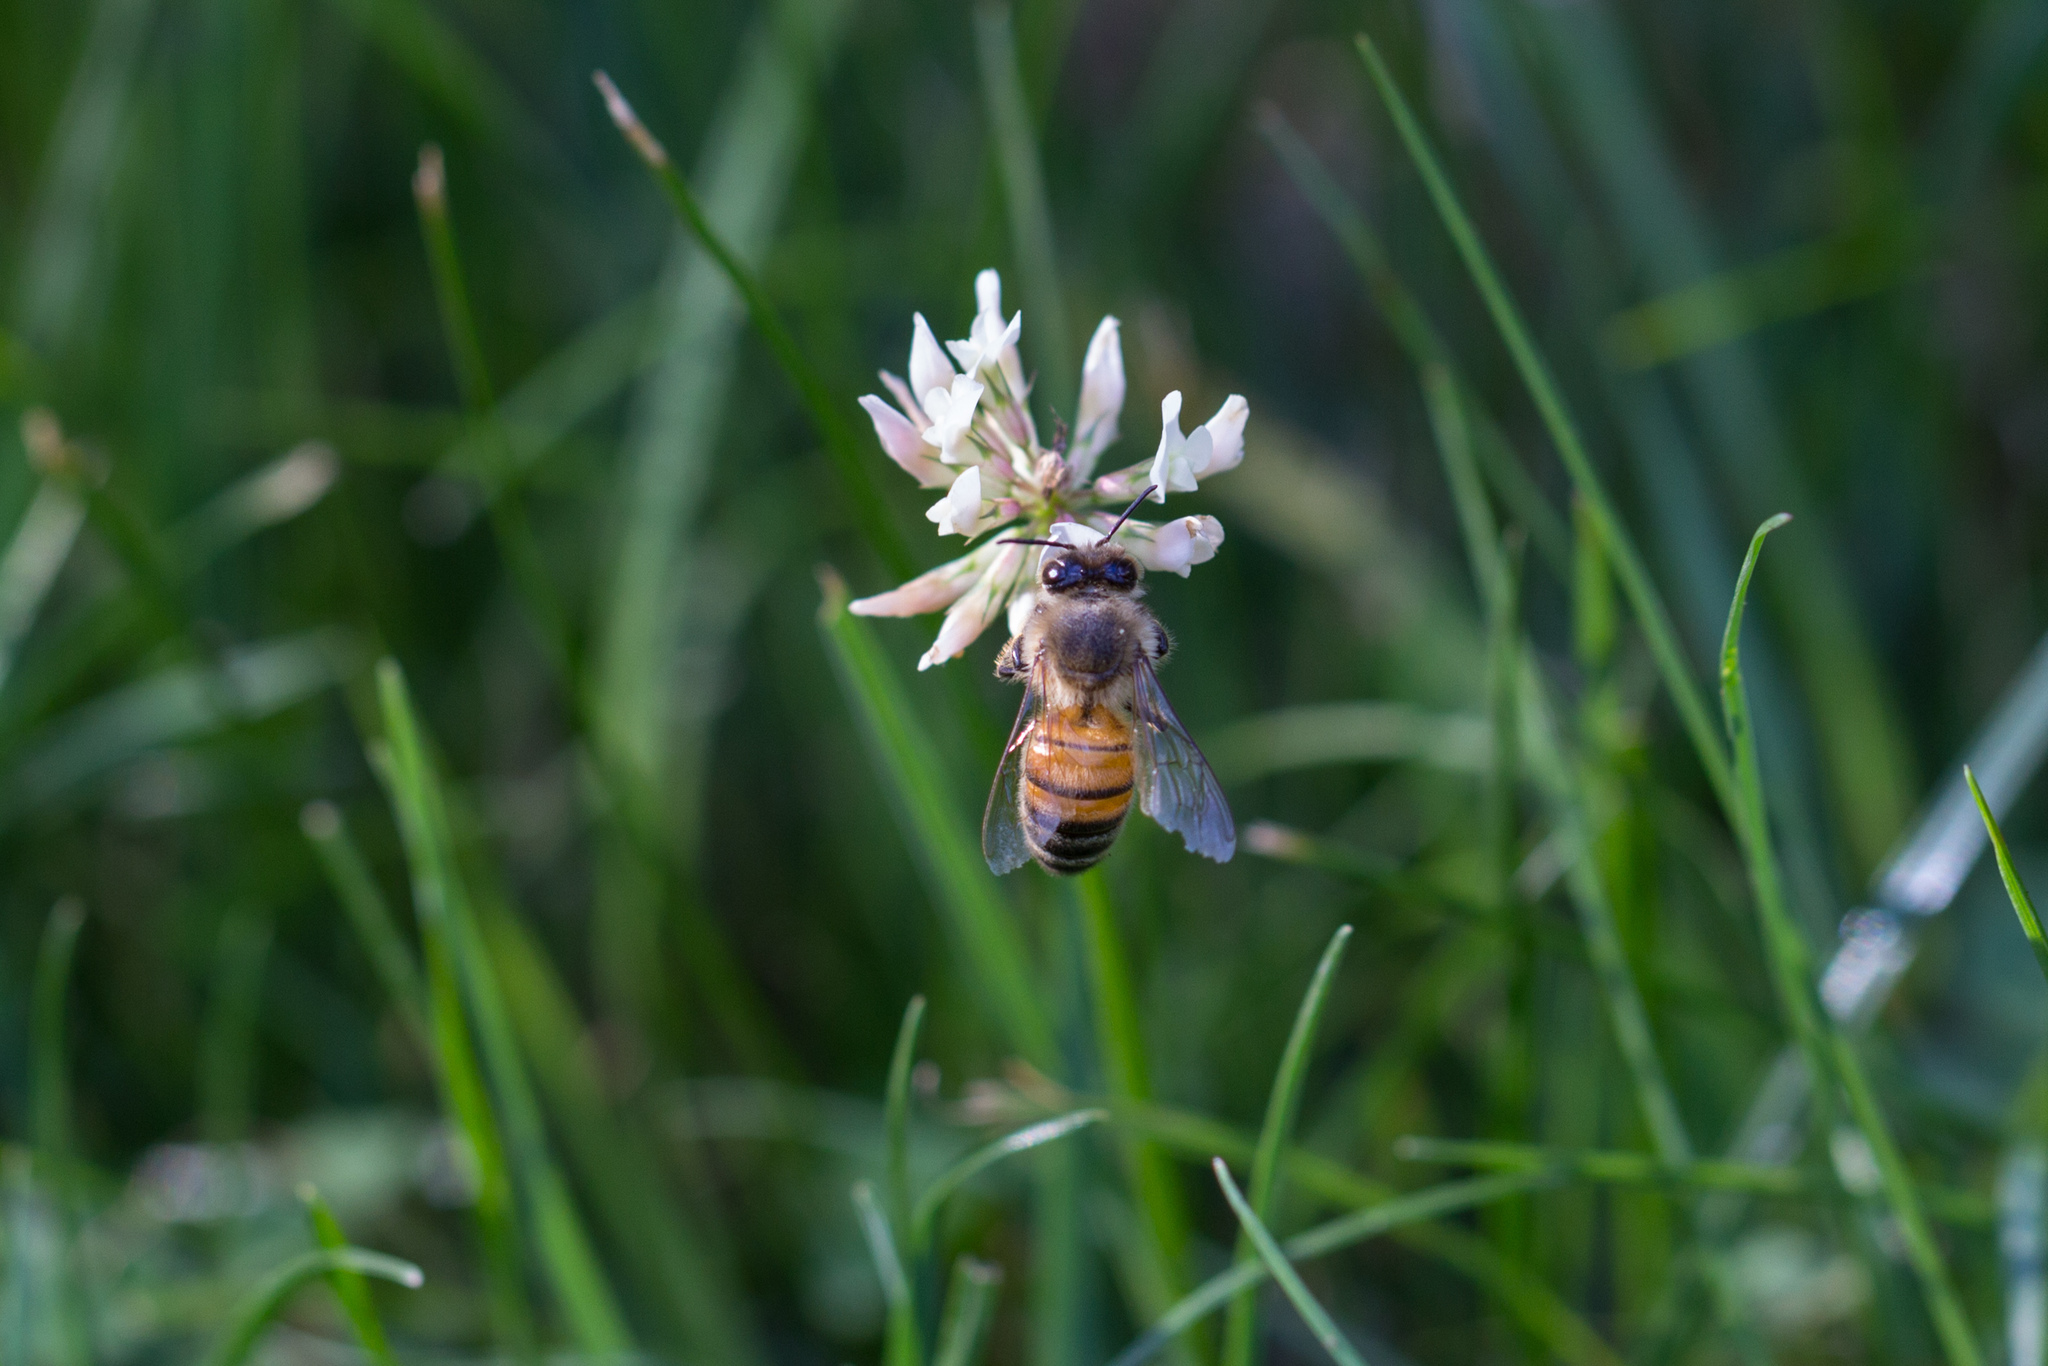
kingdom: Animalia
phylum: Arthropoda
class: Insecta
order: Hymenoptera
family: Apidae
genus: Apis
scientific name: Apis mellifera
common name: Honey bee
